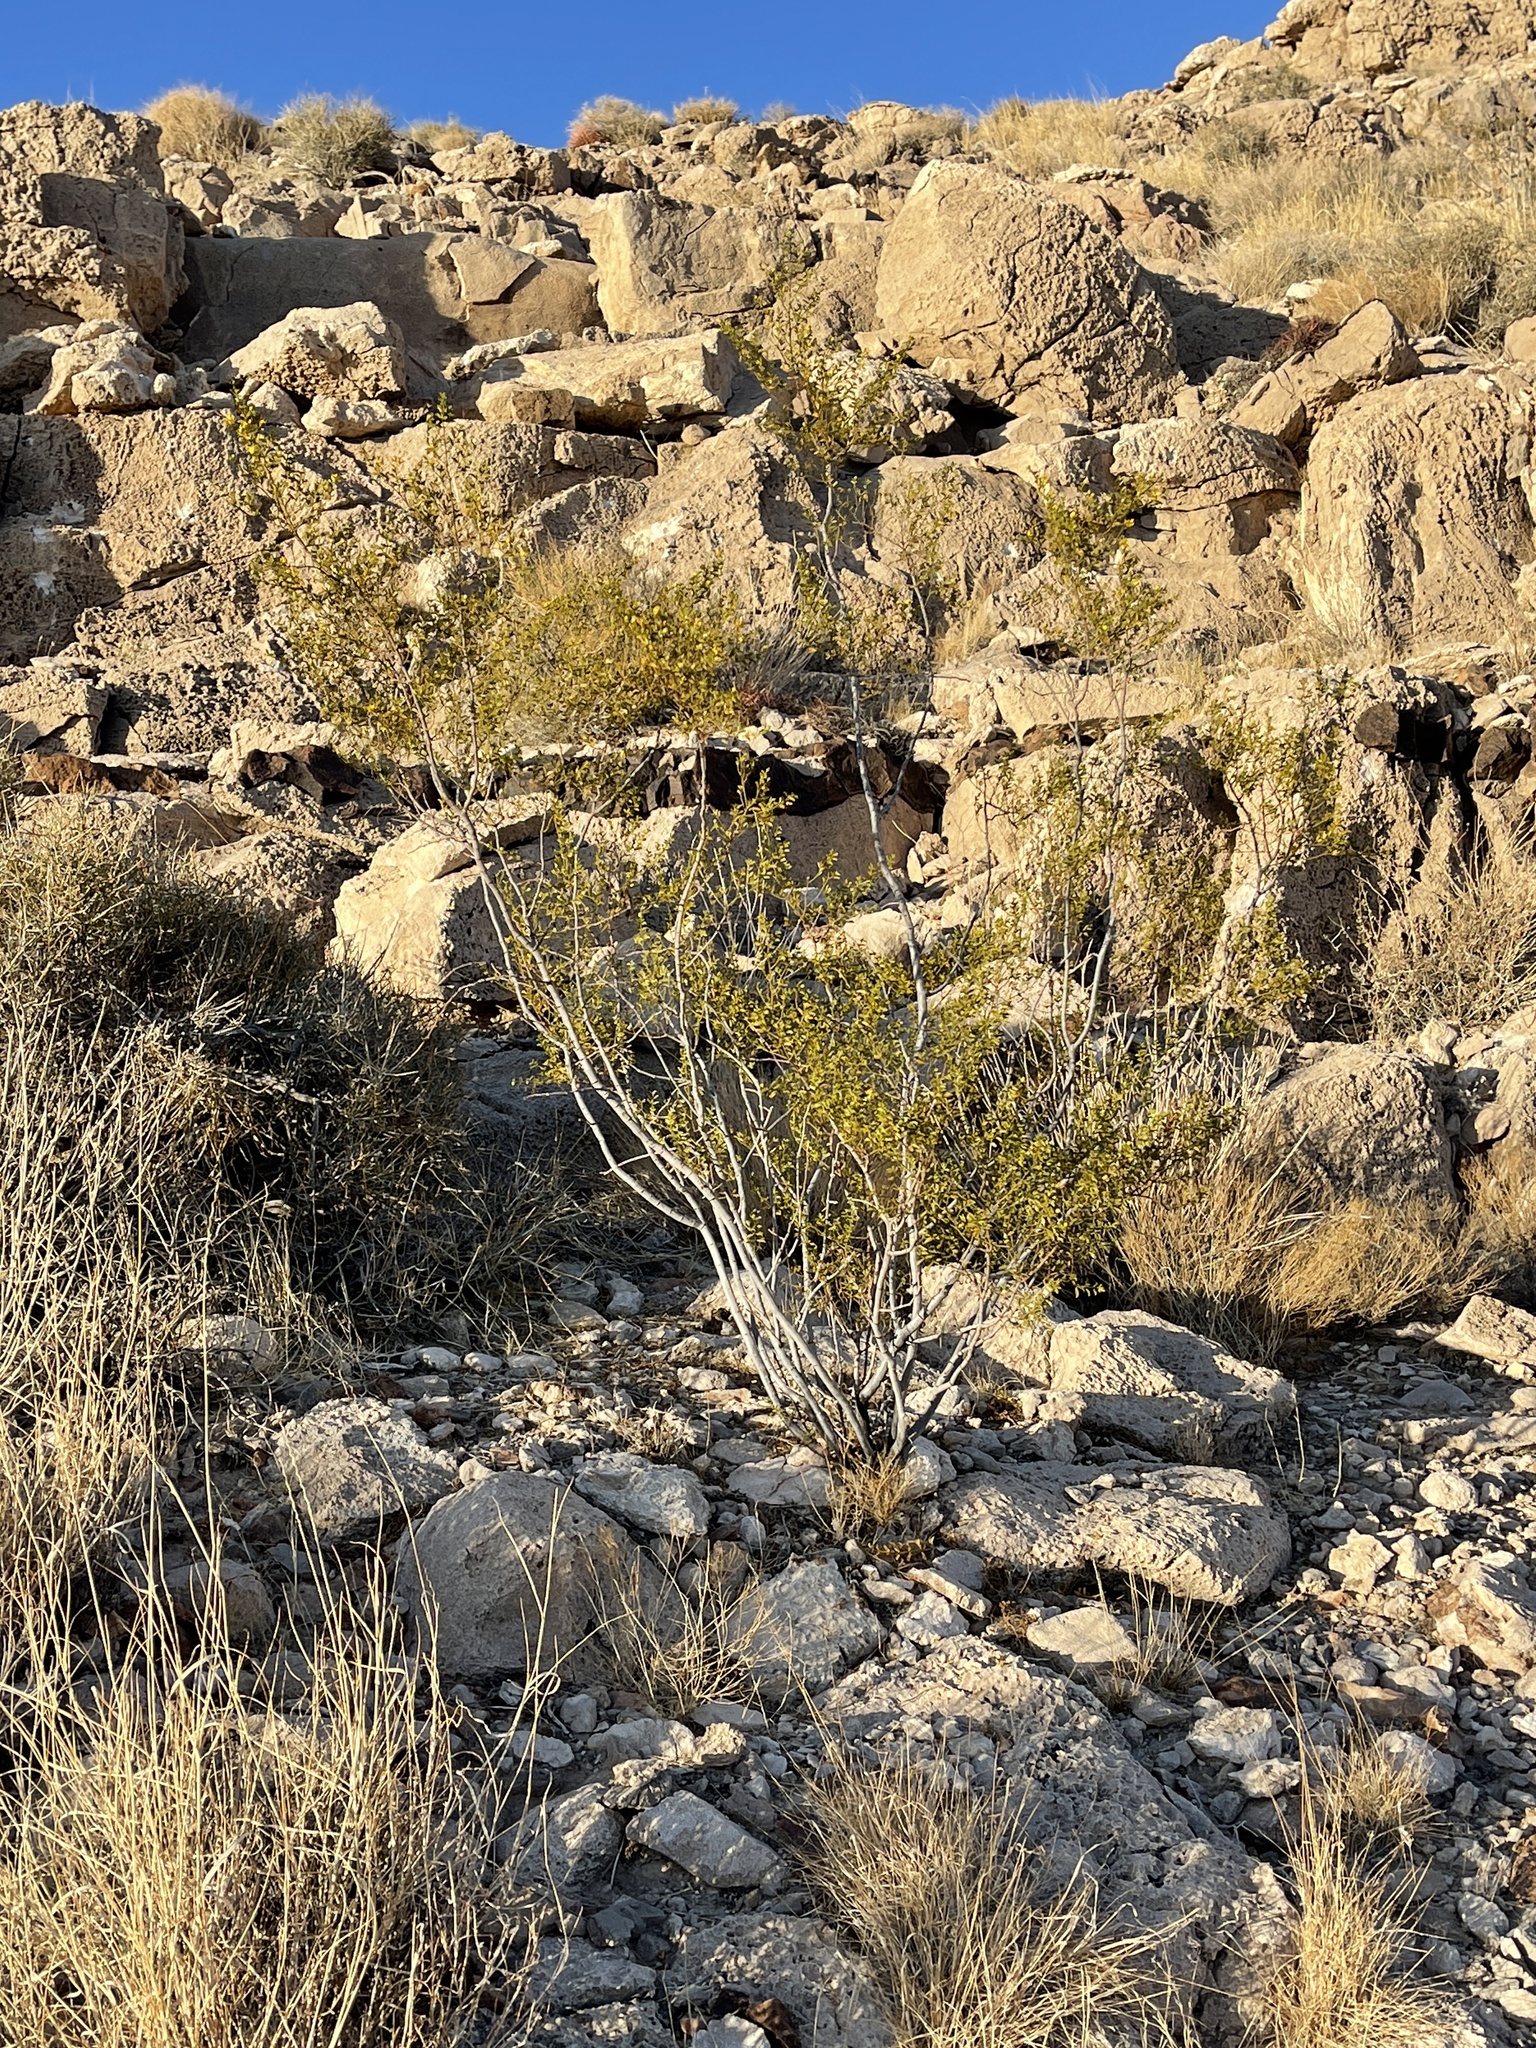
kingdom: Plantae
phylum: Tracheophyta
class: Magnoliopsida
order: Zygophyllales
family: Zygophyllaceae
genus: Larrea
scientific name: Larrea tridentata
